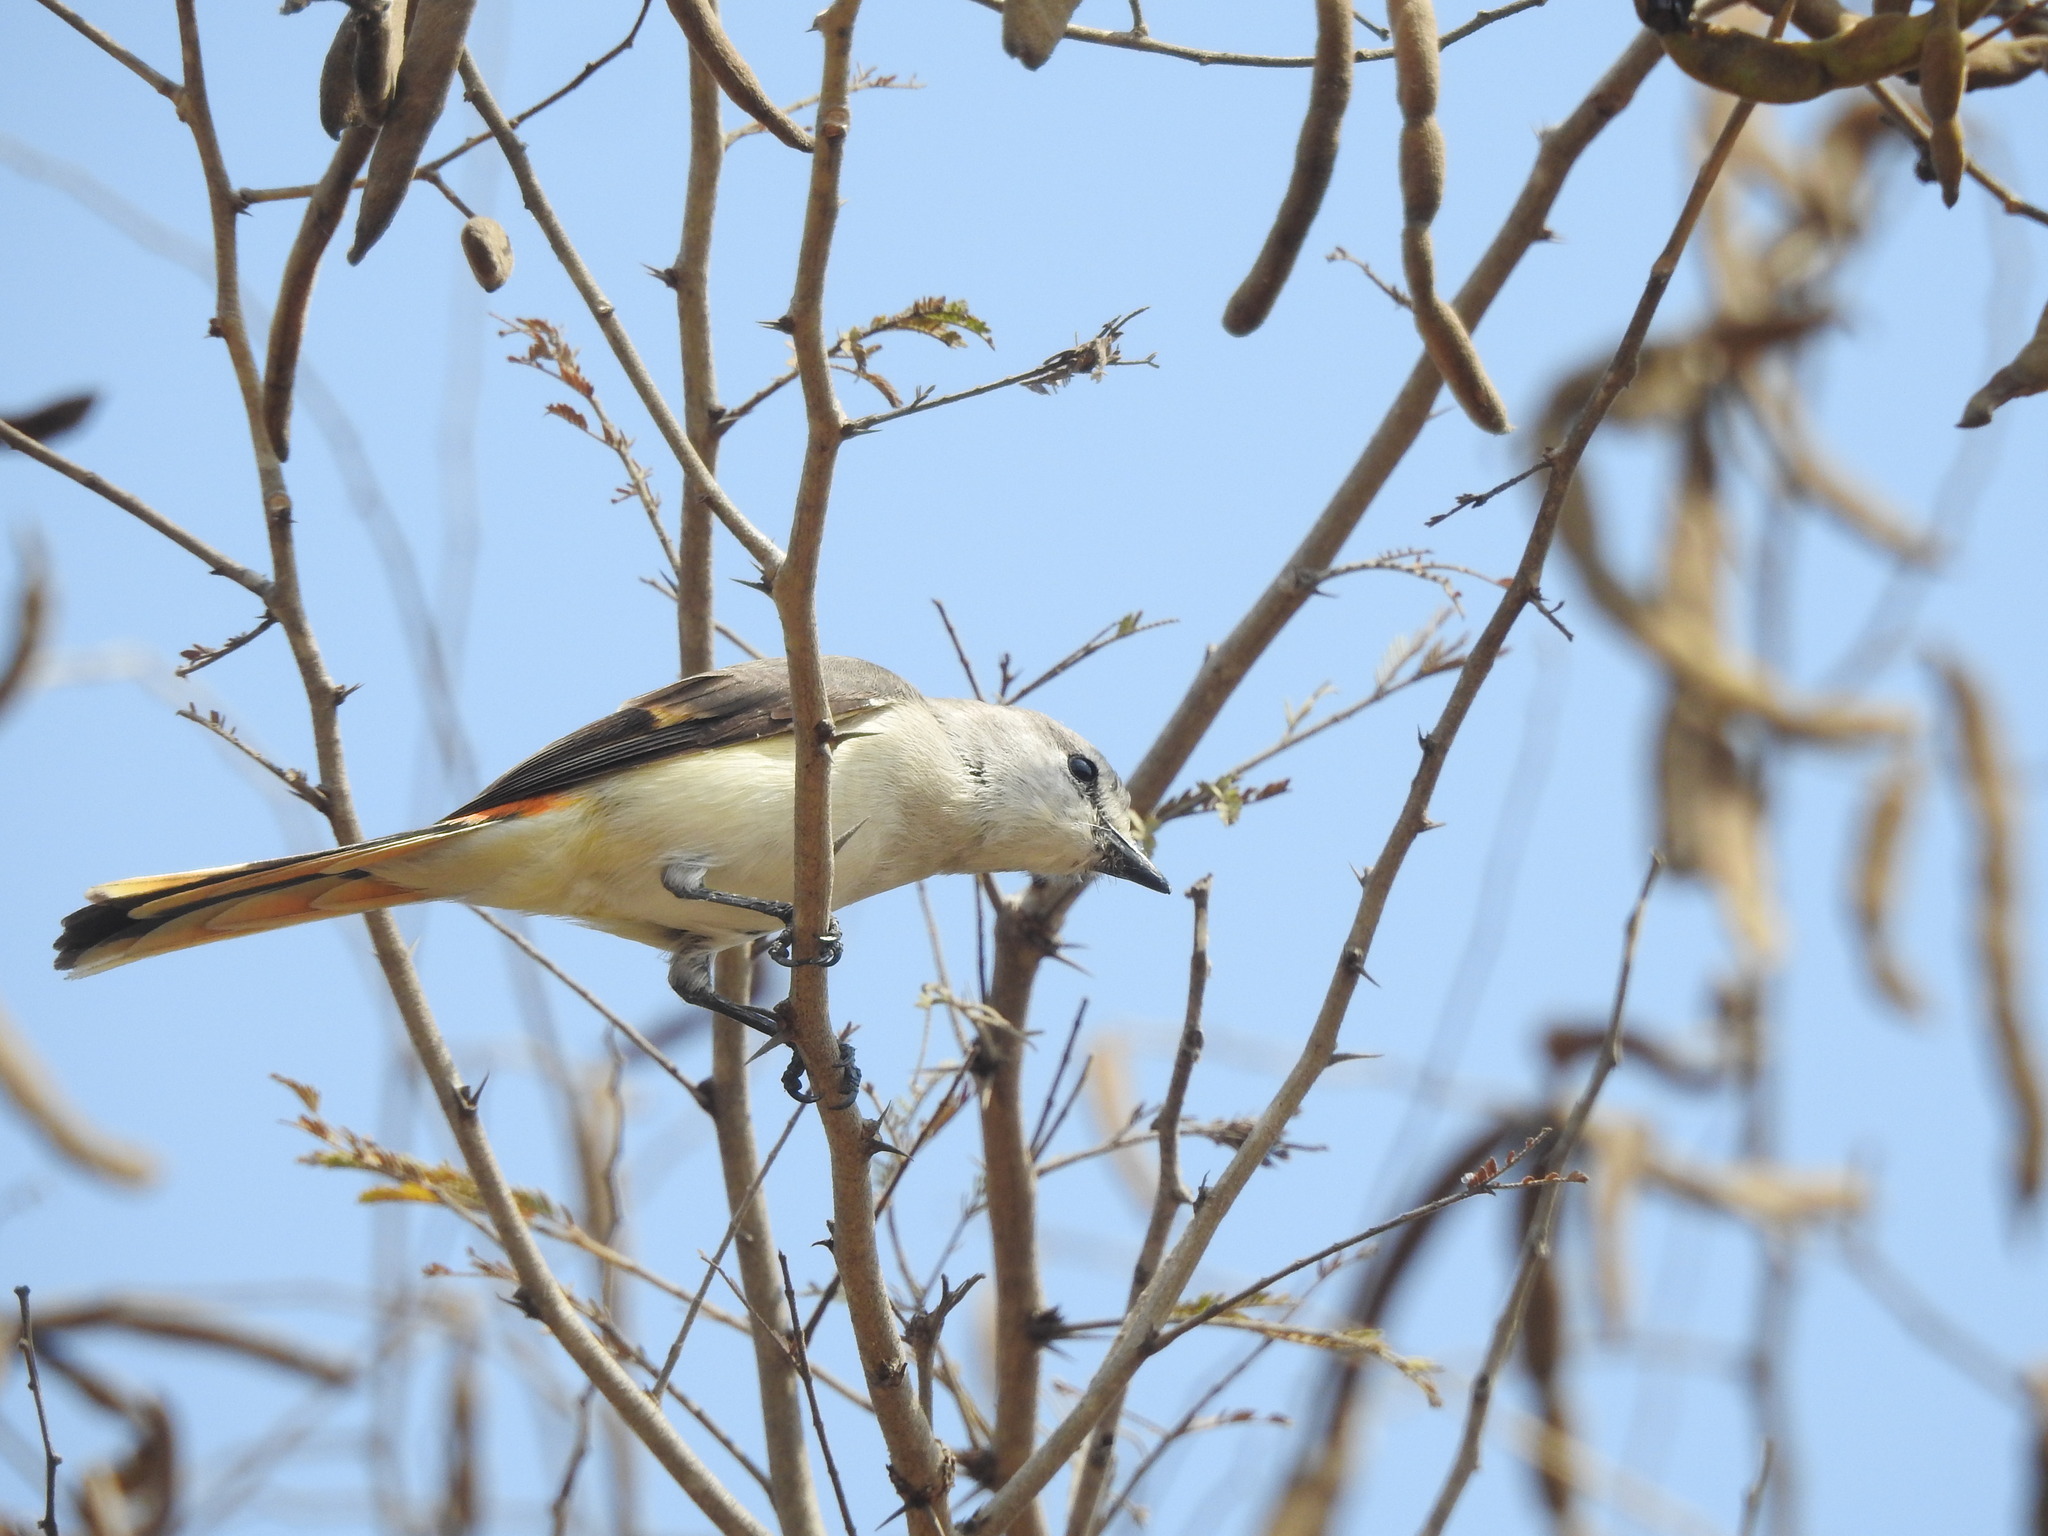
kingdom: Animalia
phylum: Chordata
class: Aves
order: Passeriformes
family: Campephagidae
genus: Pericrocotus
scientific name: Pericrocotus cinnamomeus
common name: Small minivet
